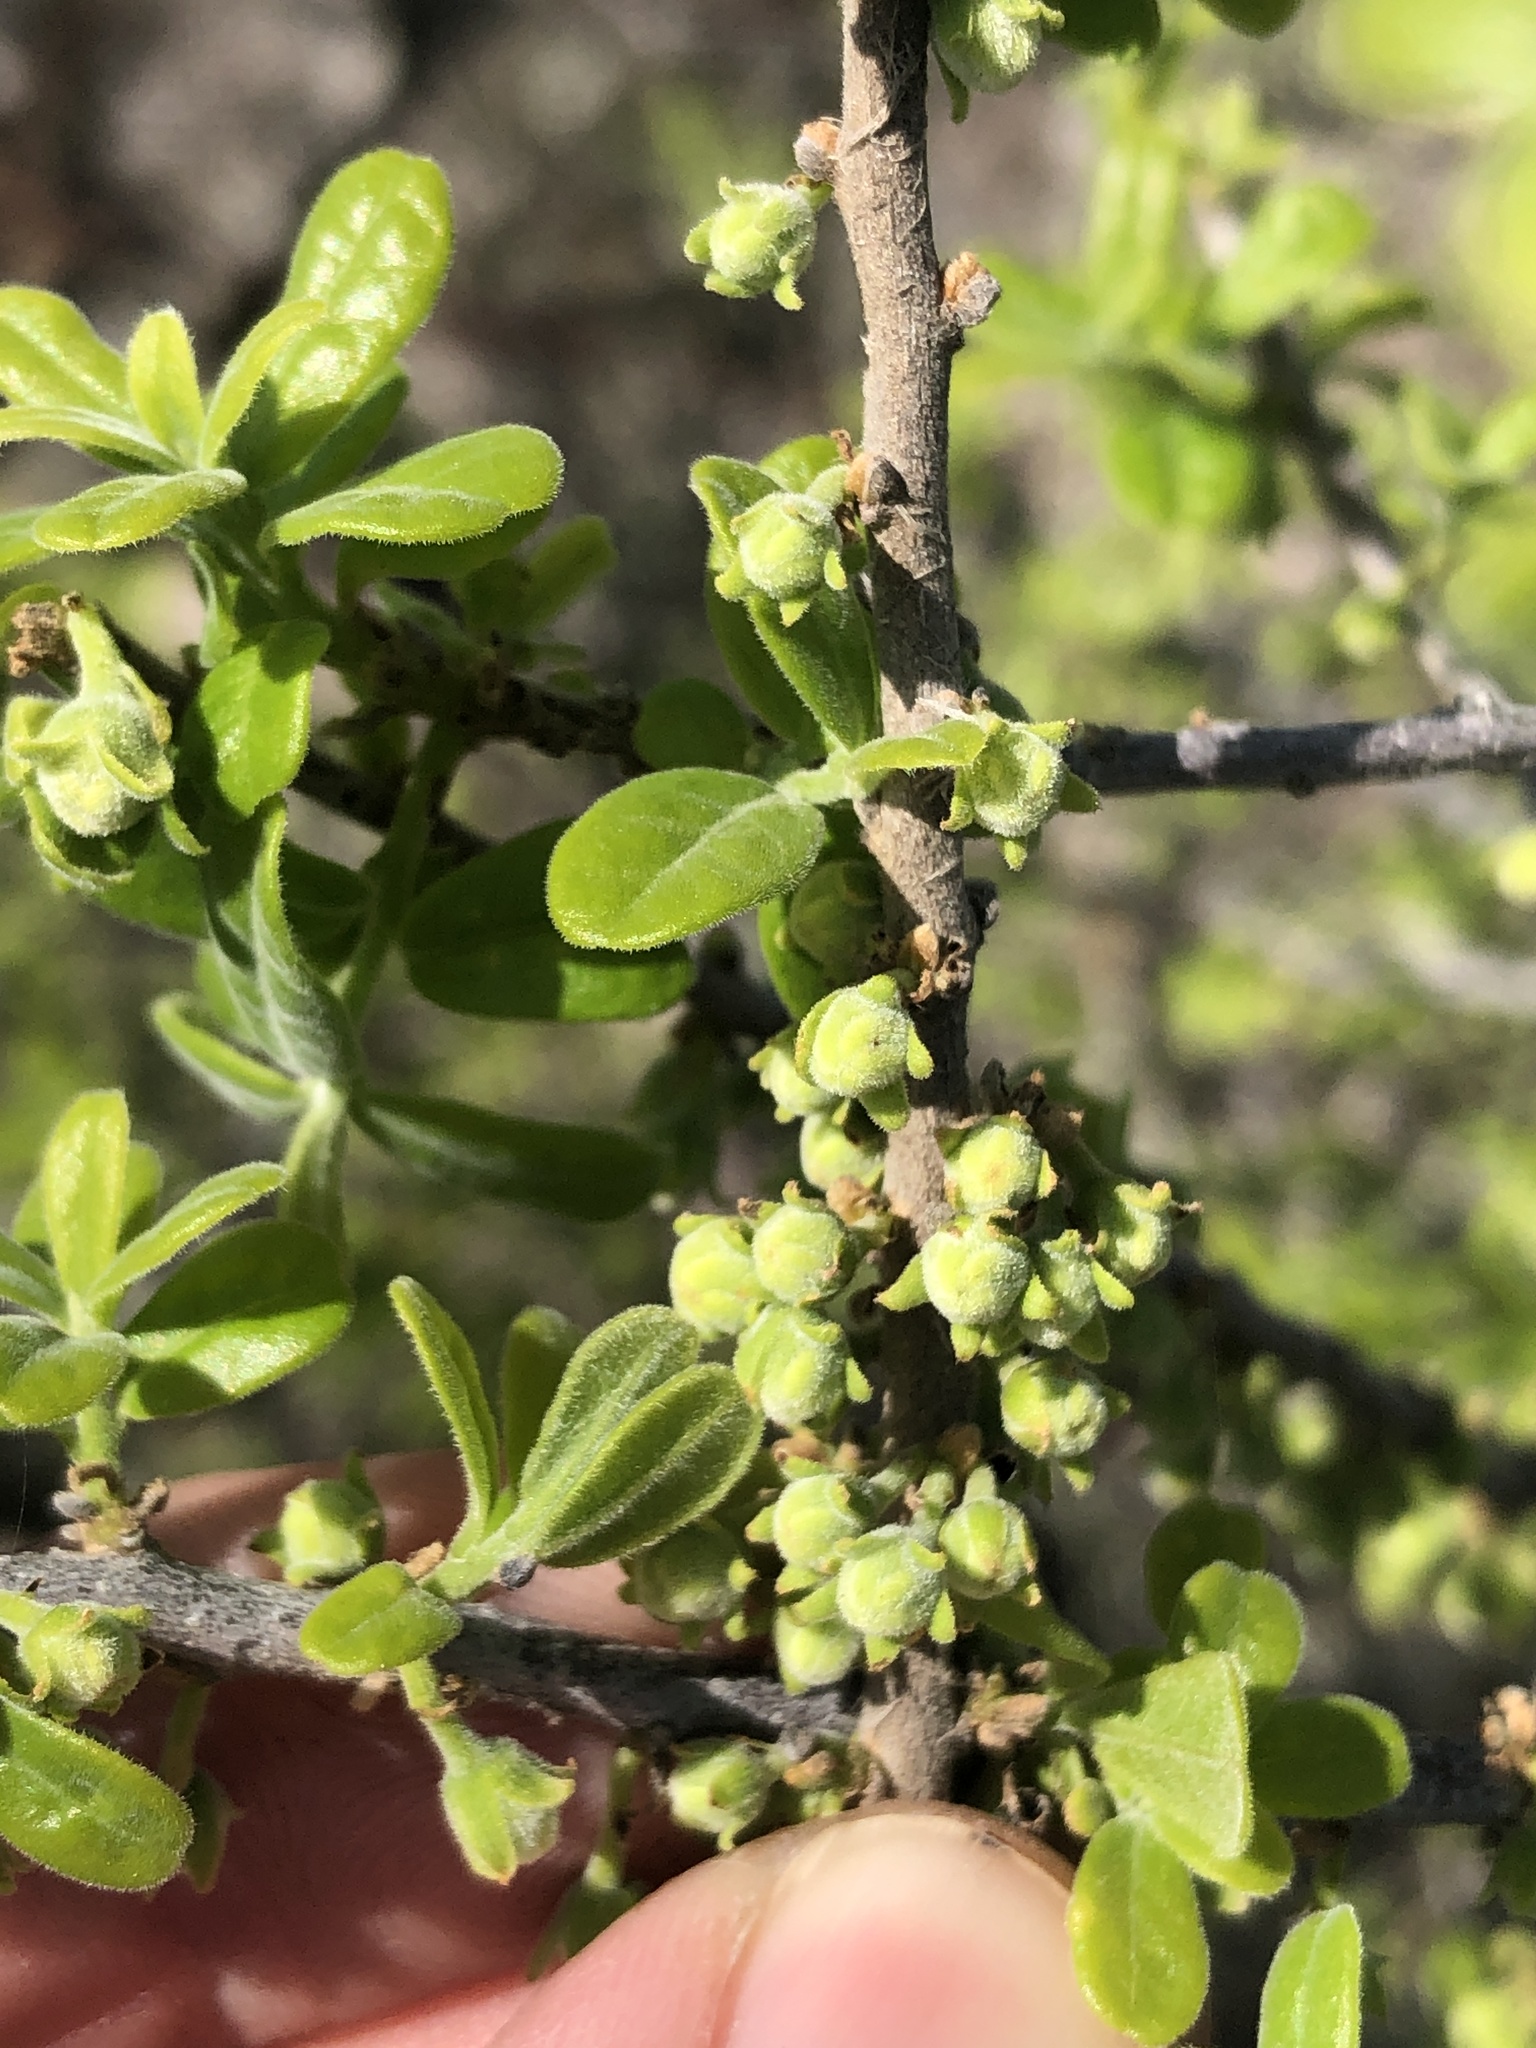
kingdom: Plantae
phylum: Tracheophyta
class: Magnoliopsida
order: Ericales
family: Ebenaceae
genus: Diospyros
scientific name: Diospyros texana
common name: Texas persimmon
